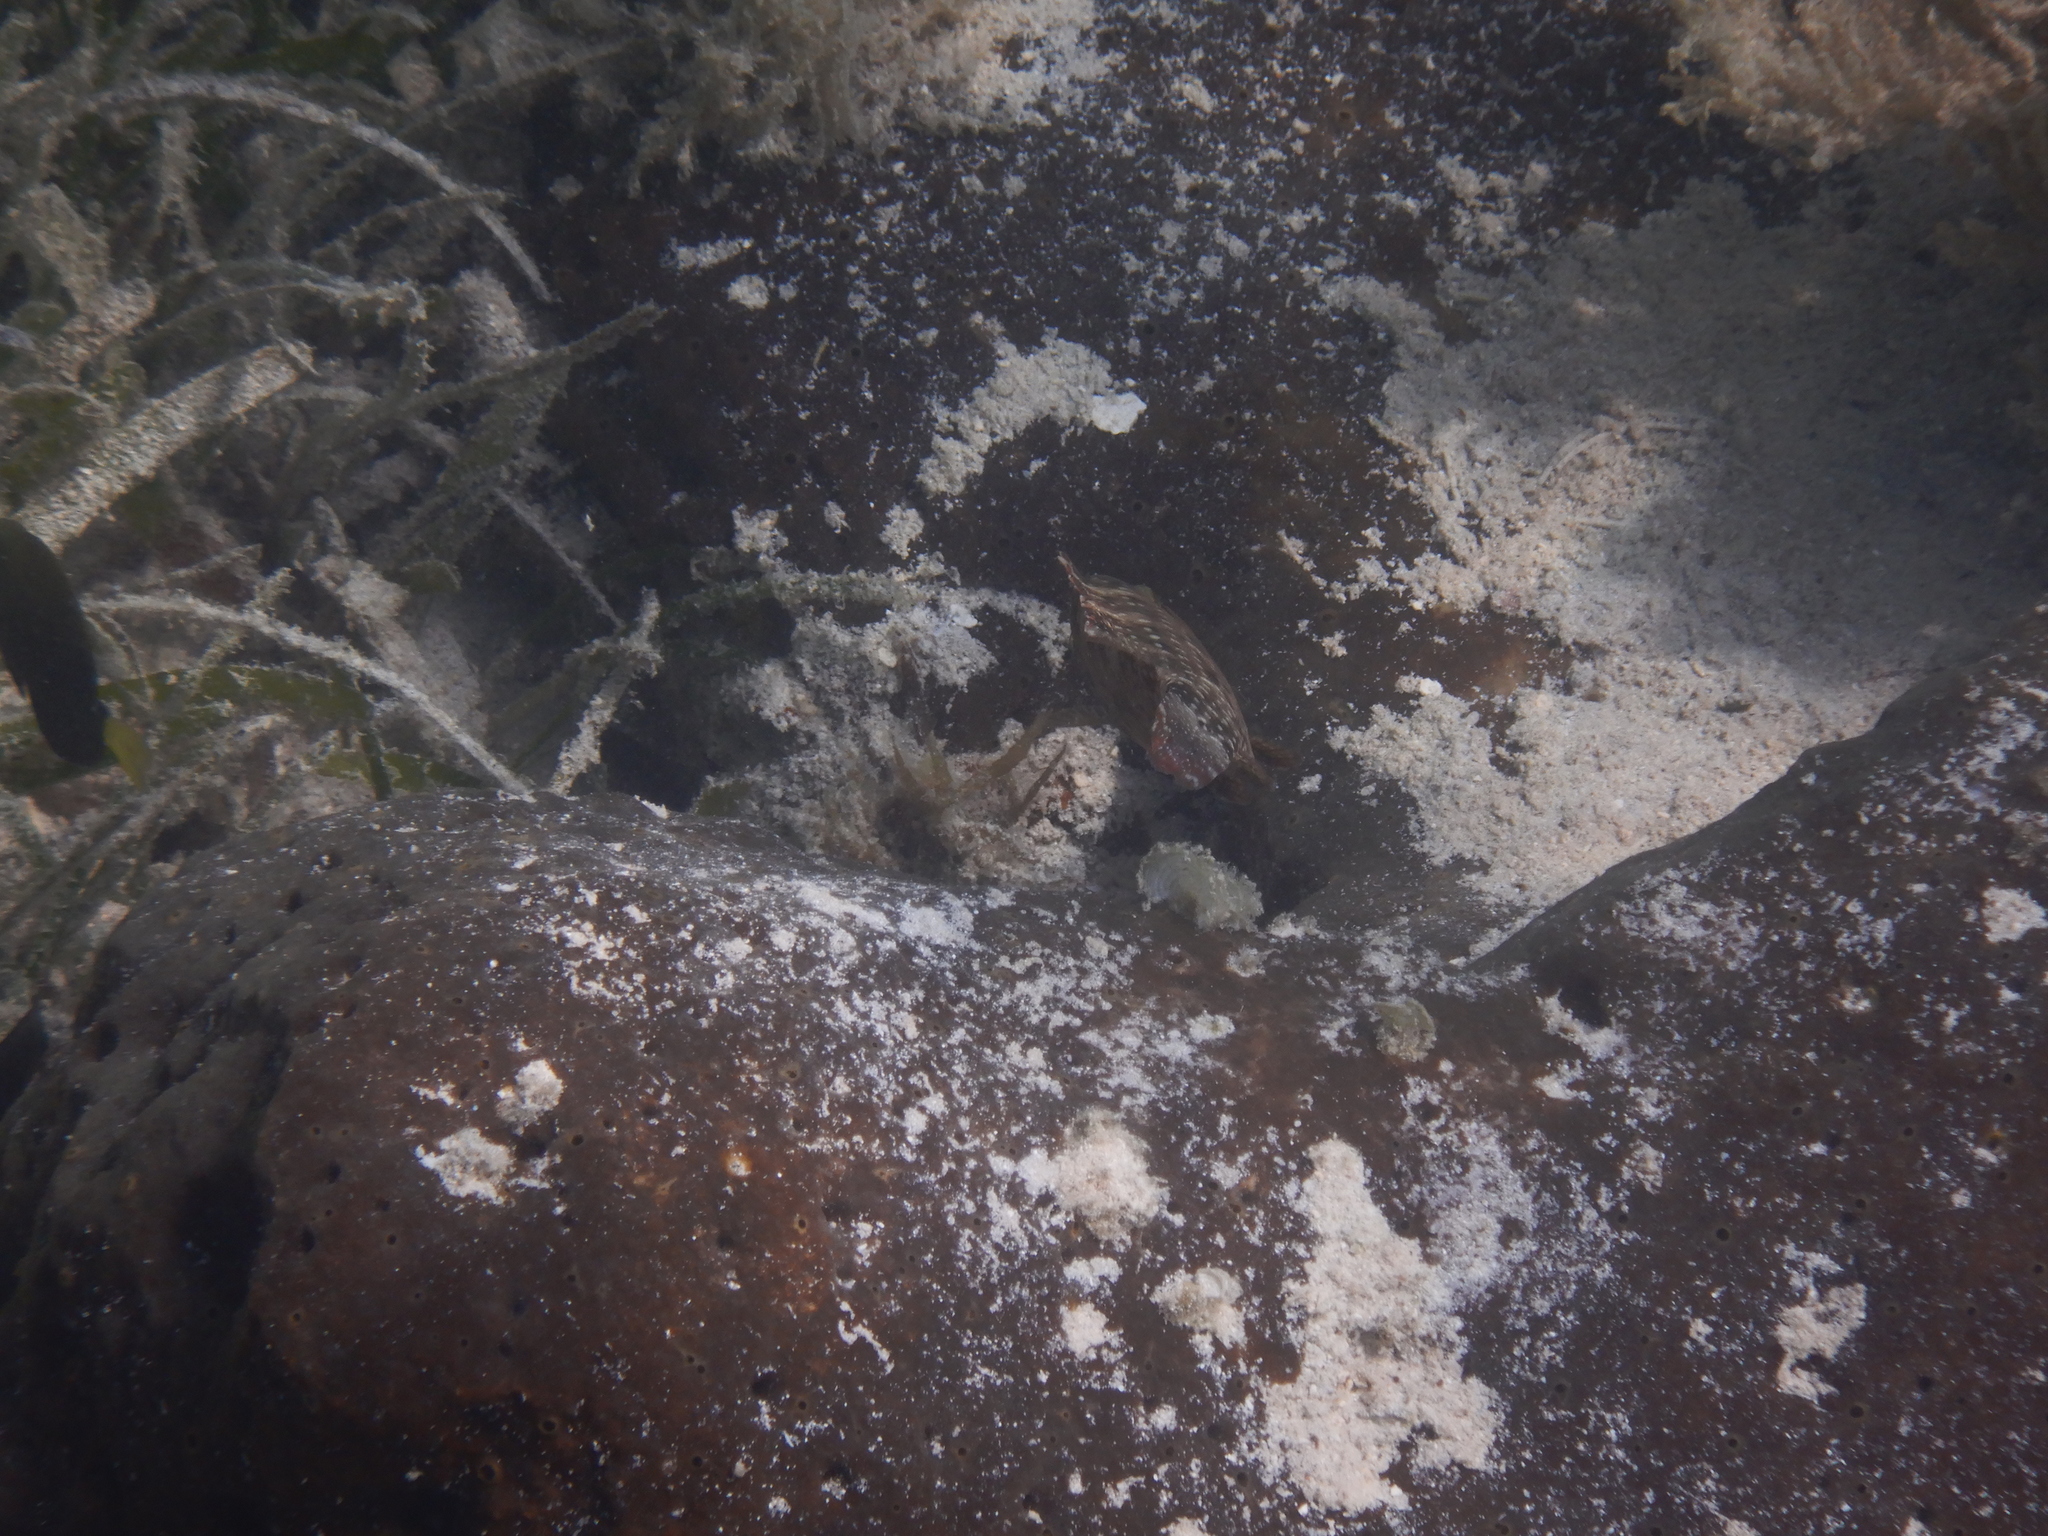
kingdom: Animalia
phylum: Chordata
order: Perciformes
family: Labridae
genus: Cheilinus
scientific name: Cheilinus chlorourus
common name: Floral wrasse
